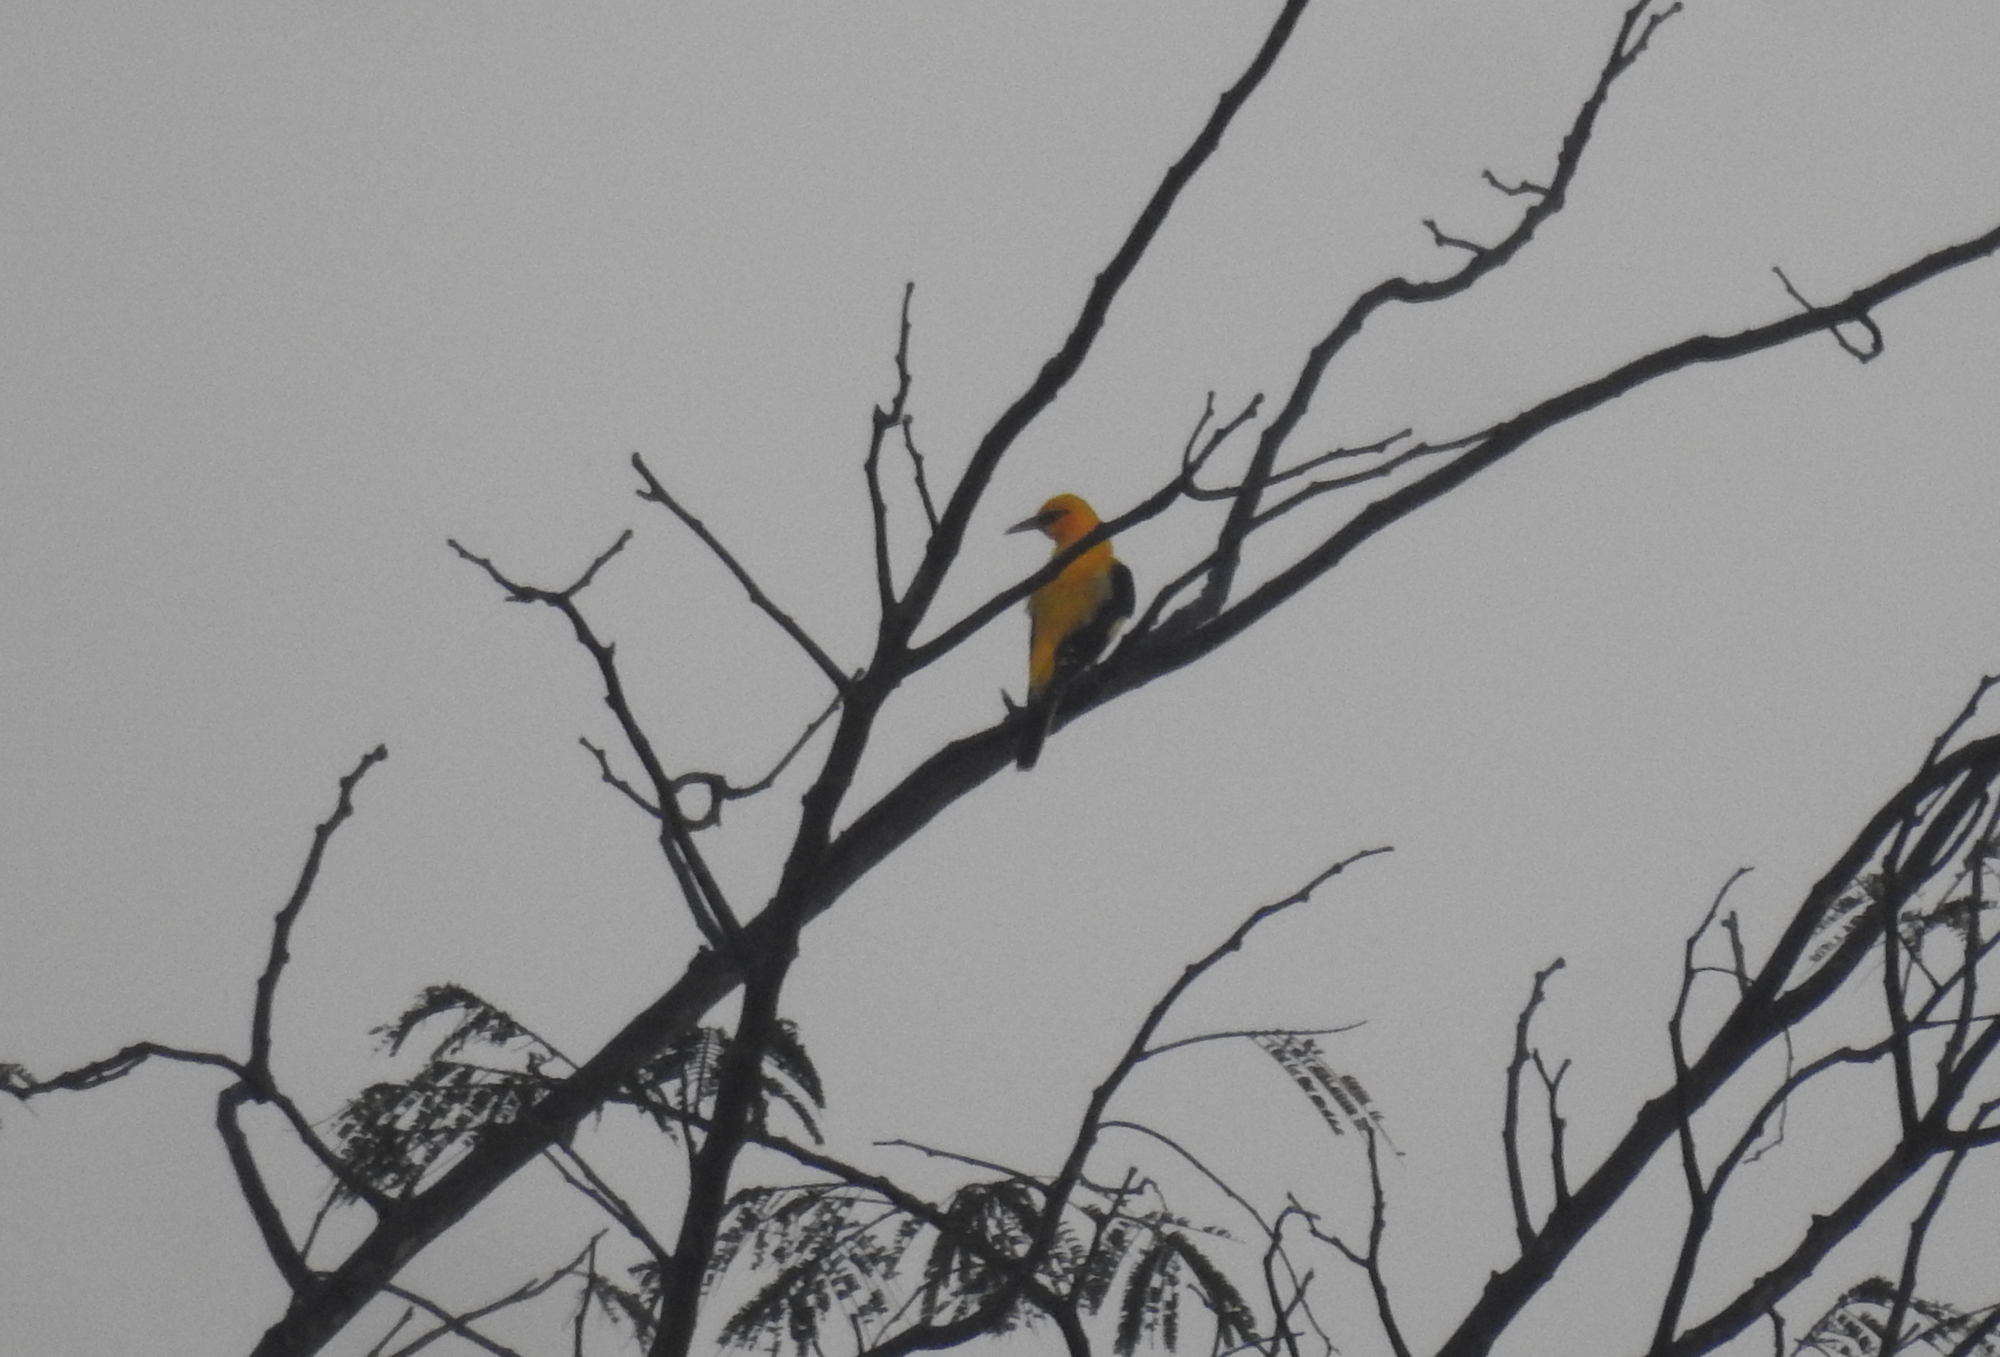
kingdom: Animalia
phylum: Chordata
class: Aves
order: Passeriformes
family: Oriolidae
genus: Oriolus
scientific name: Oriolus kundoo
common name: Indian golden oriole
